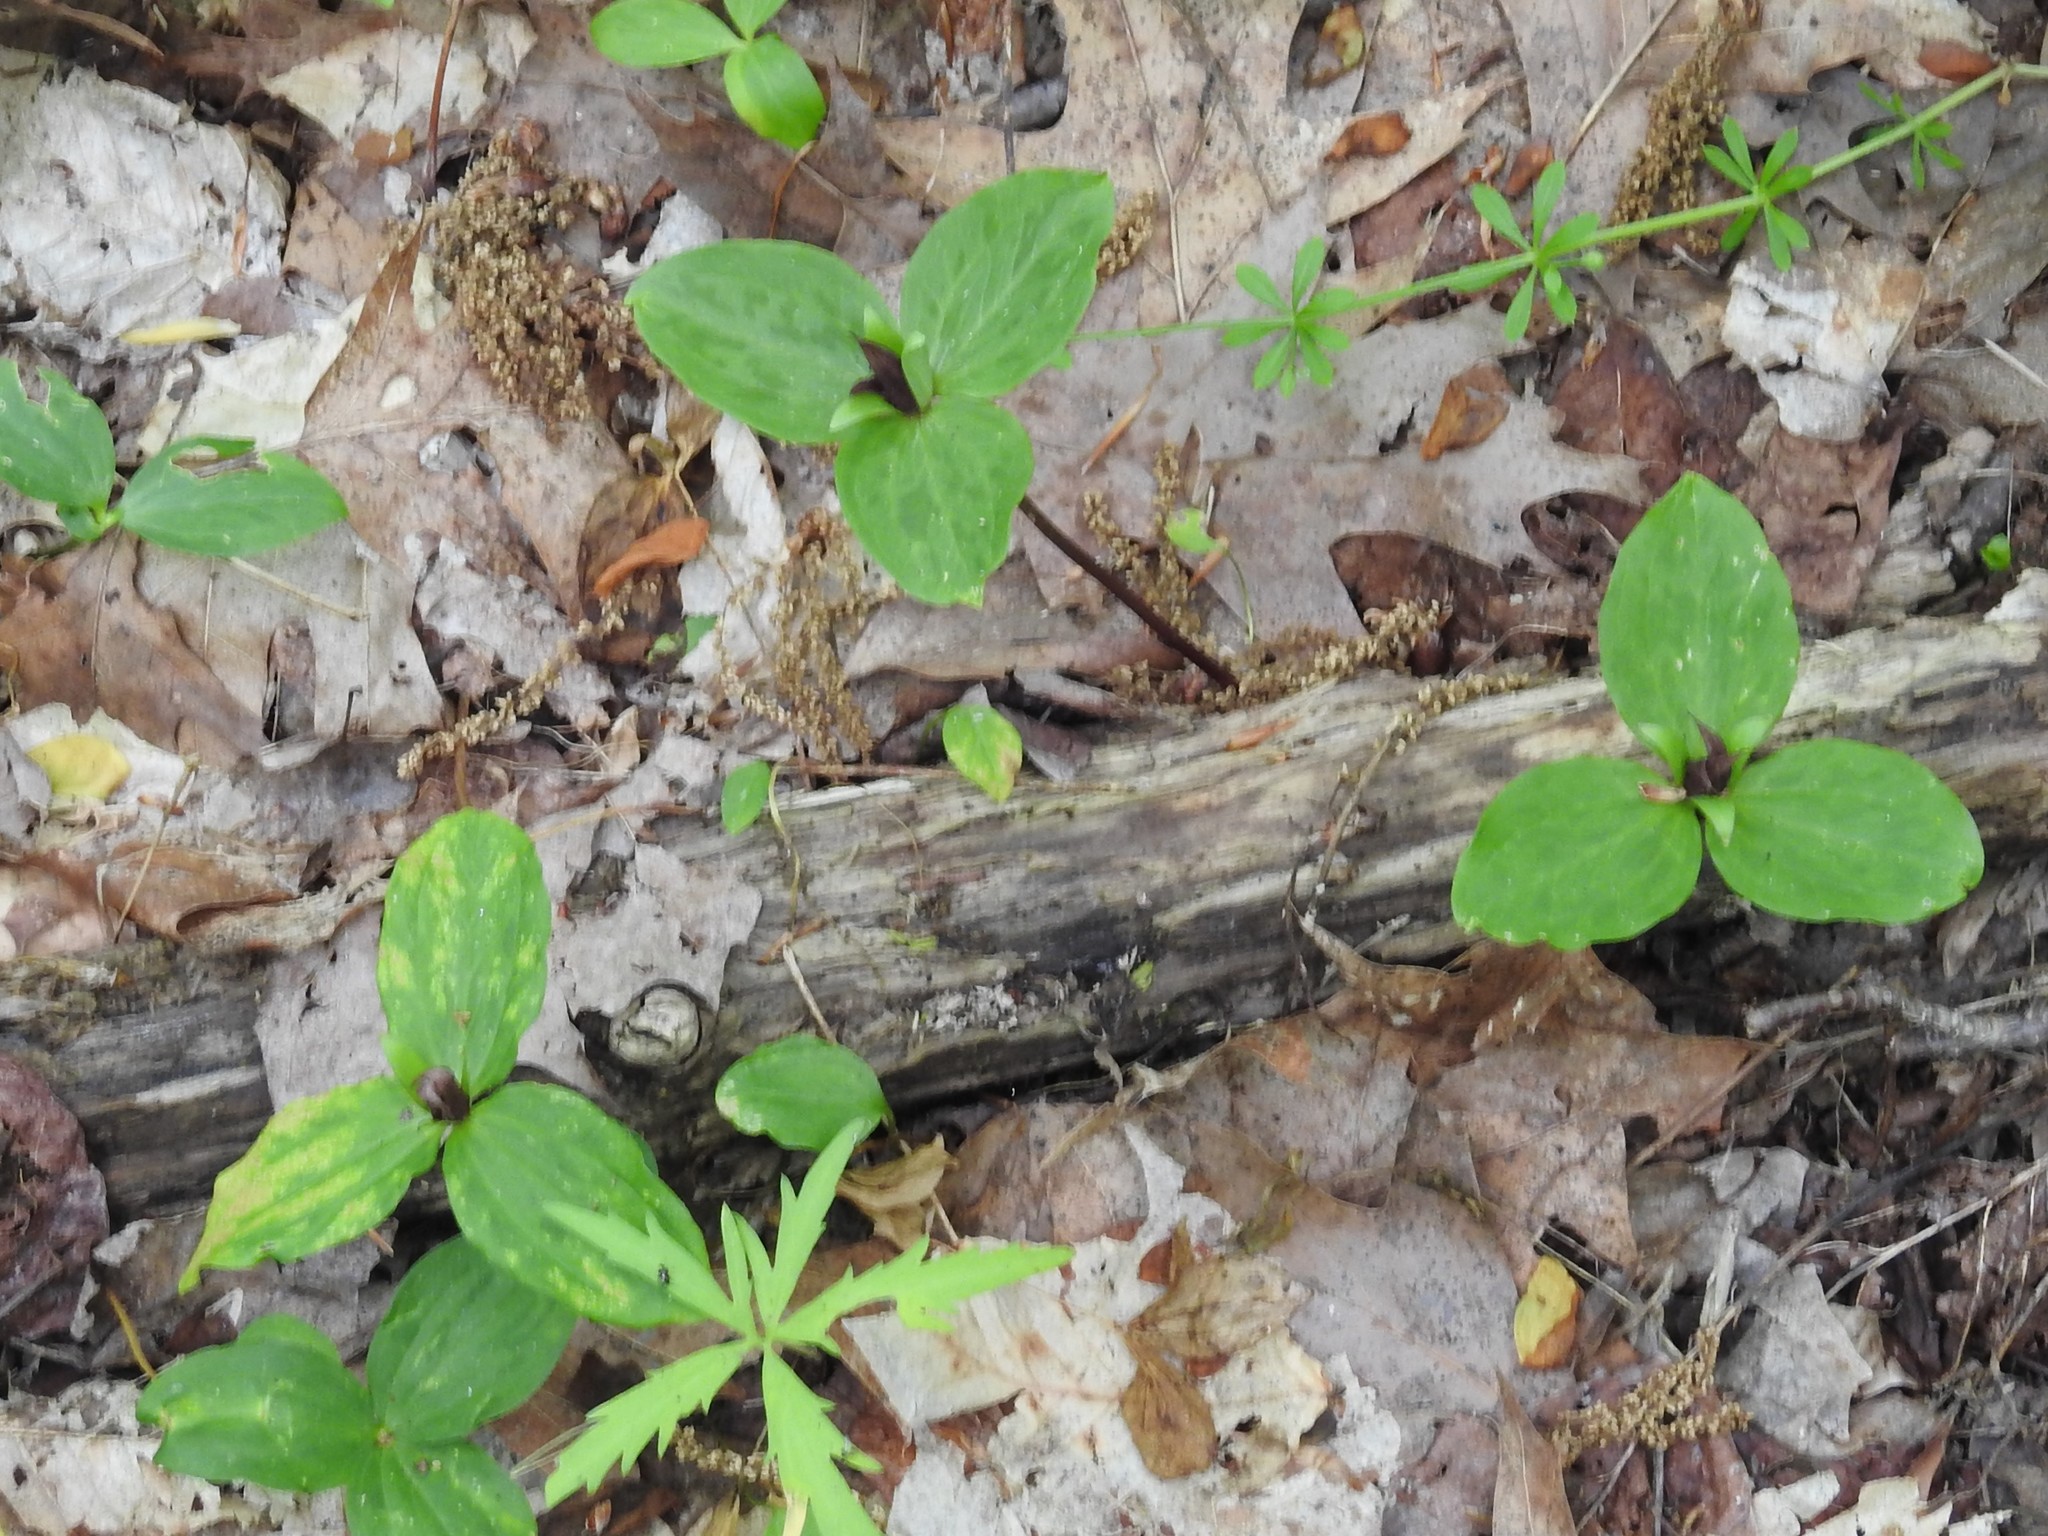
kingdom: Plantae
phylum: Tracheophyta
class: Liliopsida
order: Liliales
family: Melanthiaceae
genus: Trillium
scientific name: Trillium sessile
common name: Sessile trillium
